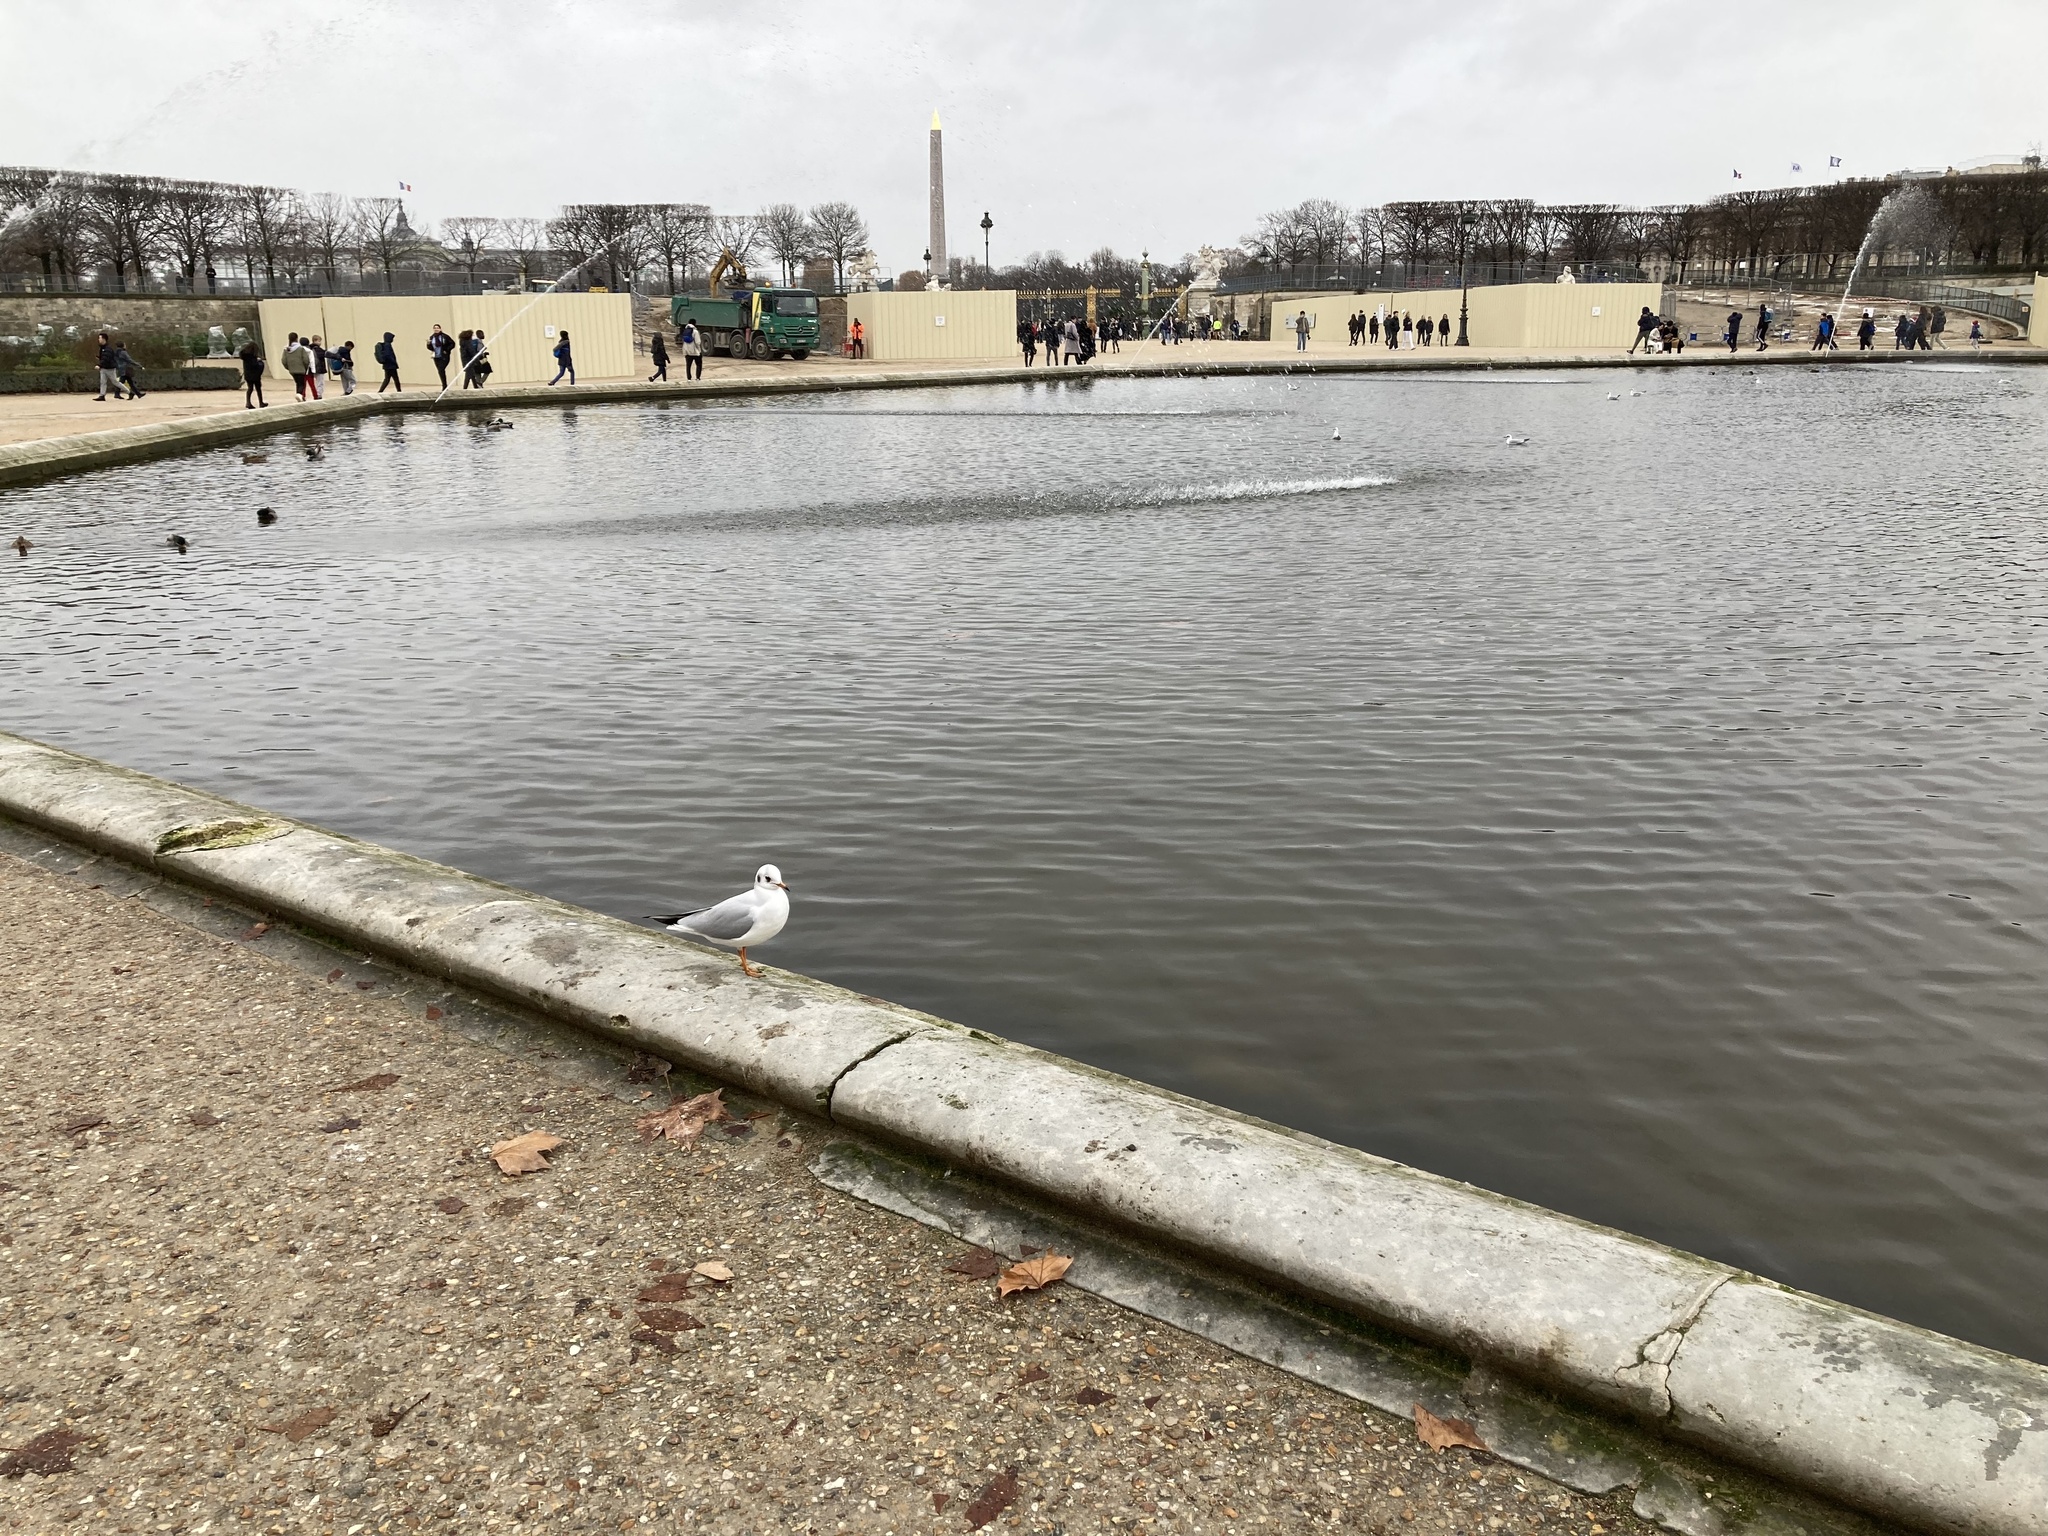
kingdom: Animalia
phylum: Chordata
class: Aves
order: Charadriiformes
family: Laridae
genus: Chroicocephalus
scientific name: Chroicocephalus ridibundus
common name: Black-headed gull
